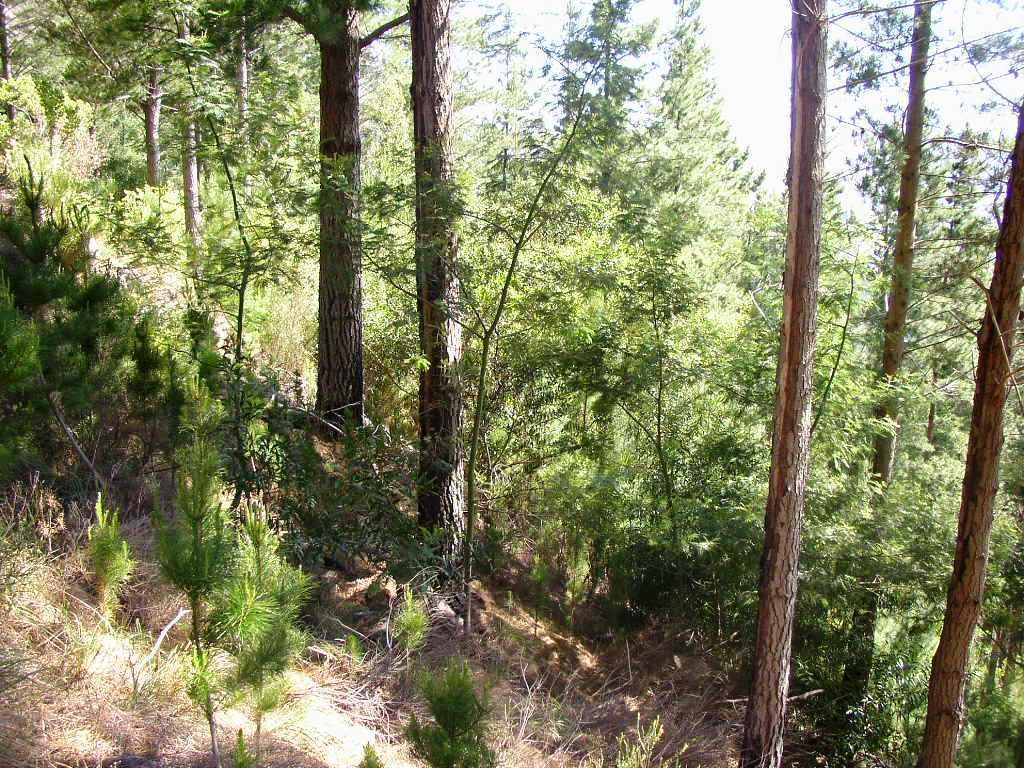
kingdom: Plantae
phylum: Tracheophyta
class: Magnoliopsida
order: Fabales
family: Fabaceae
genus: Acacia
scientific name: Acacia mearnsii
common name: Black wattle
